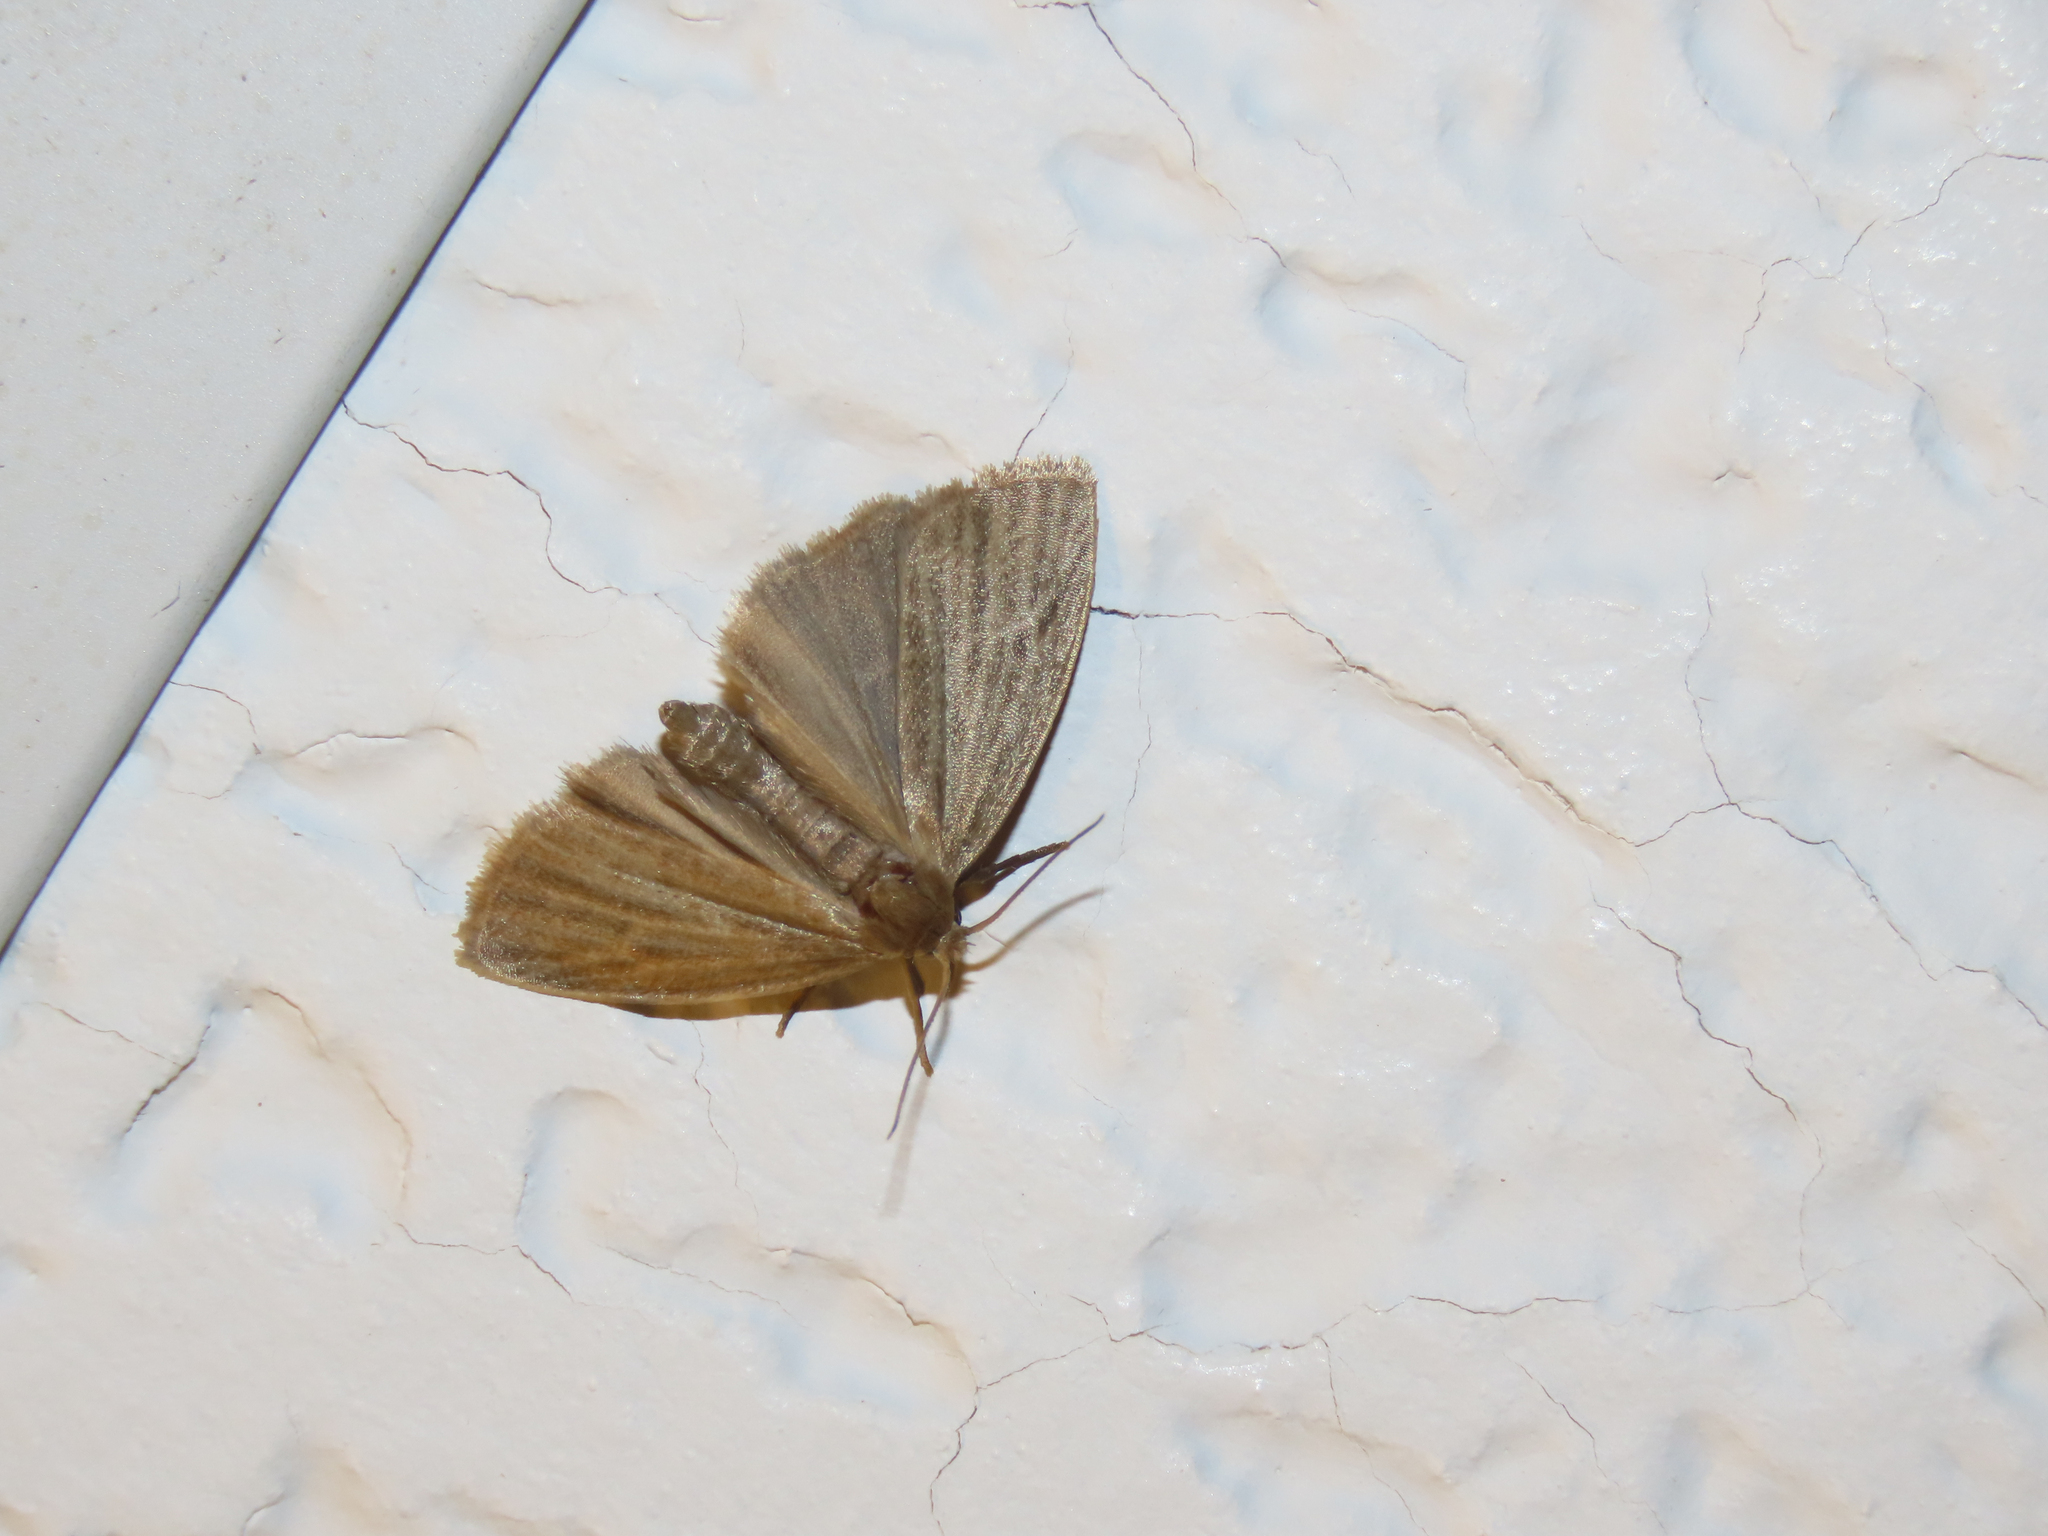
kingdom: Animalia
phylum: Arthropoda
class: Insecta
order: Lepidoptera
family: Erebidae
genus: Crambidia
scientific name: Crambidia pallida
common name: Pale lichen moth
